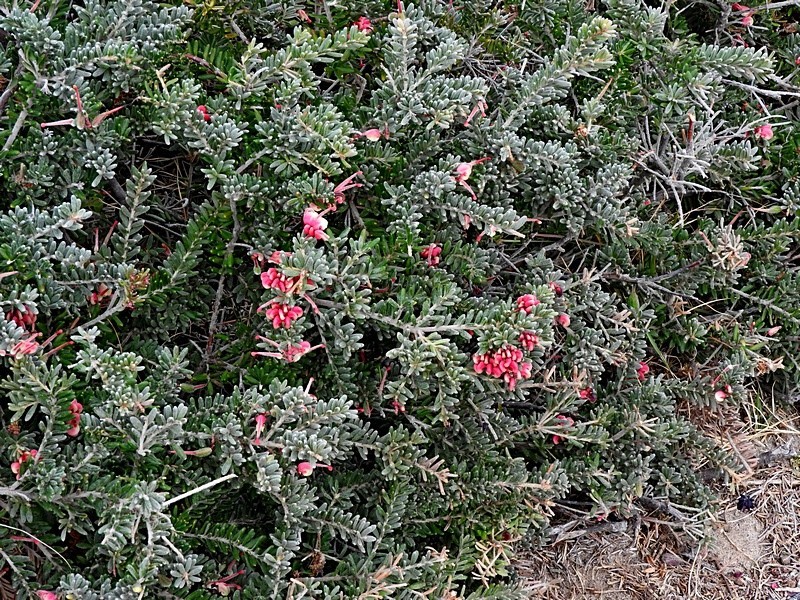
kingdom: Plantae
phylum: Tracheophyta
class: Magnoliopsida
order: Proteales
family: Proteaceae
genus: Grevillea
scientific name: Grevillea lanigera
